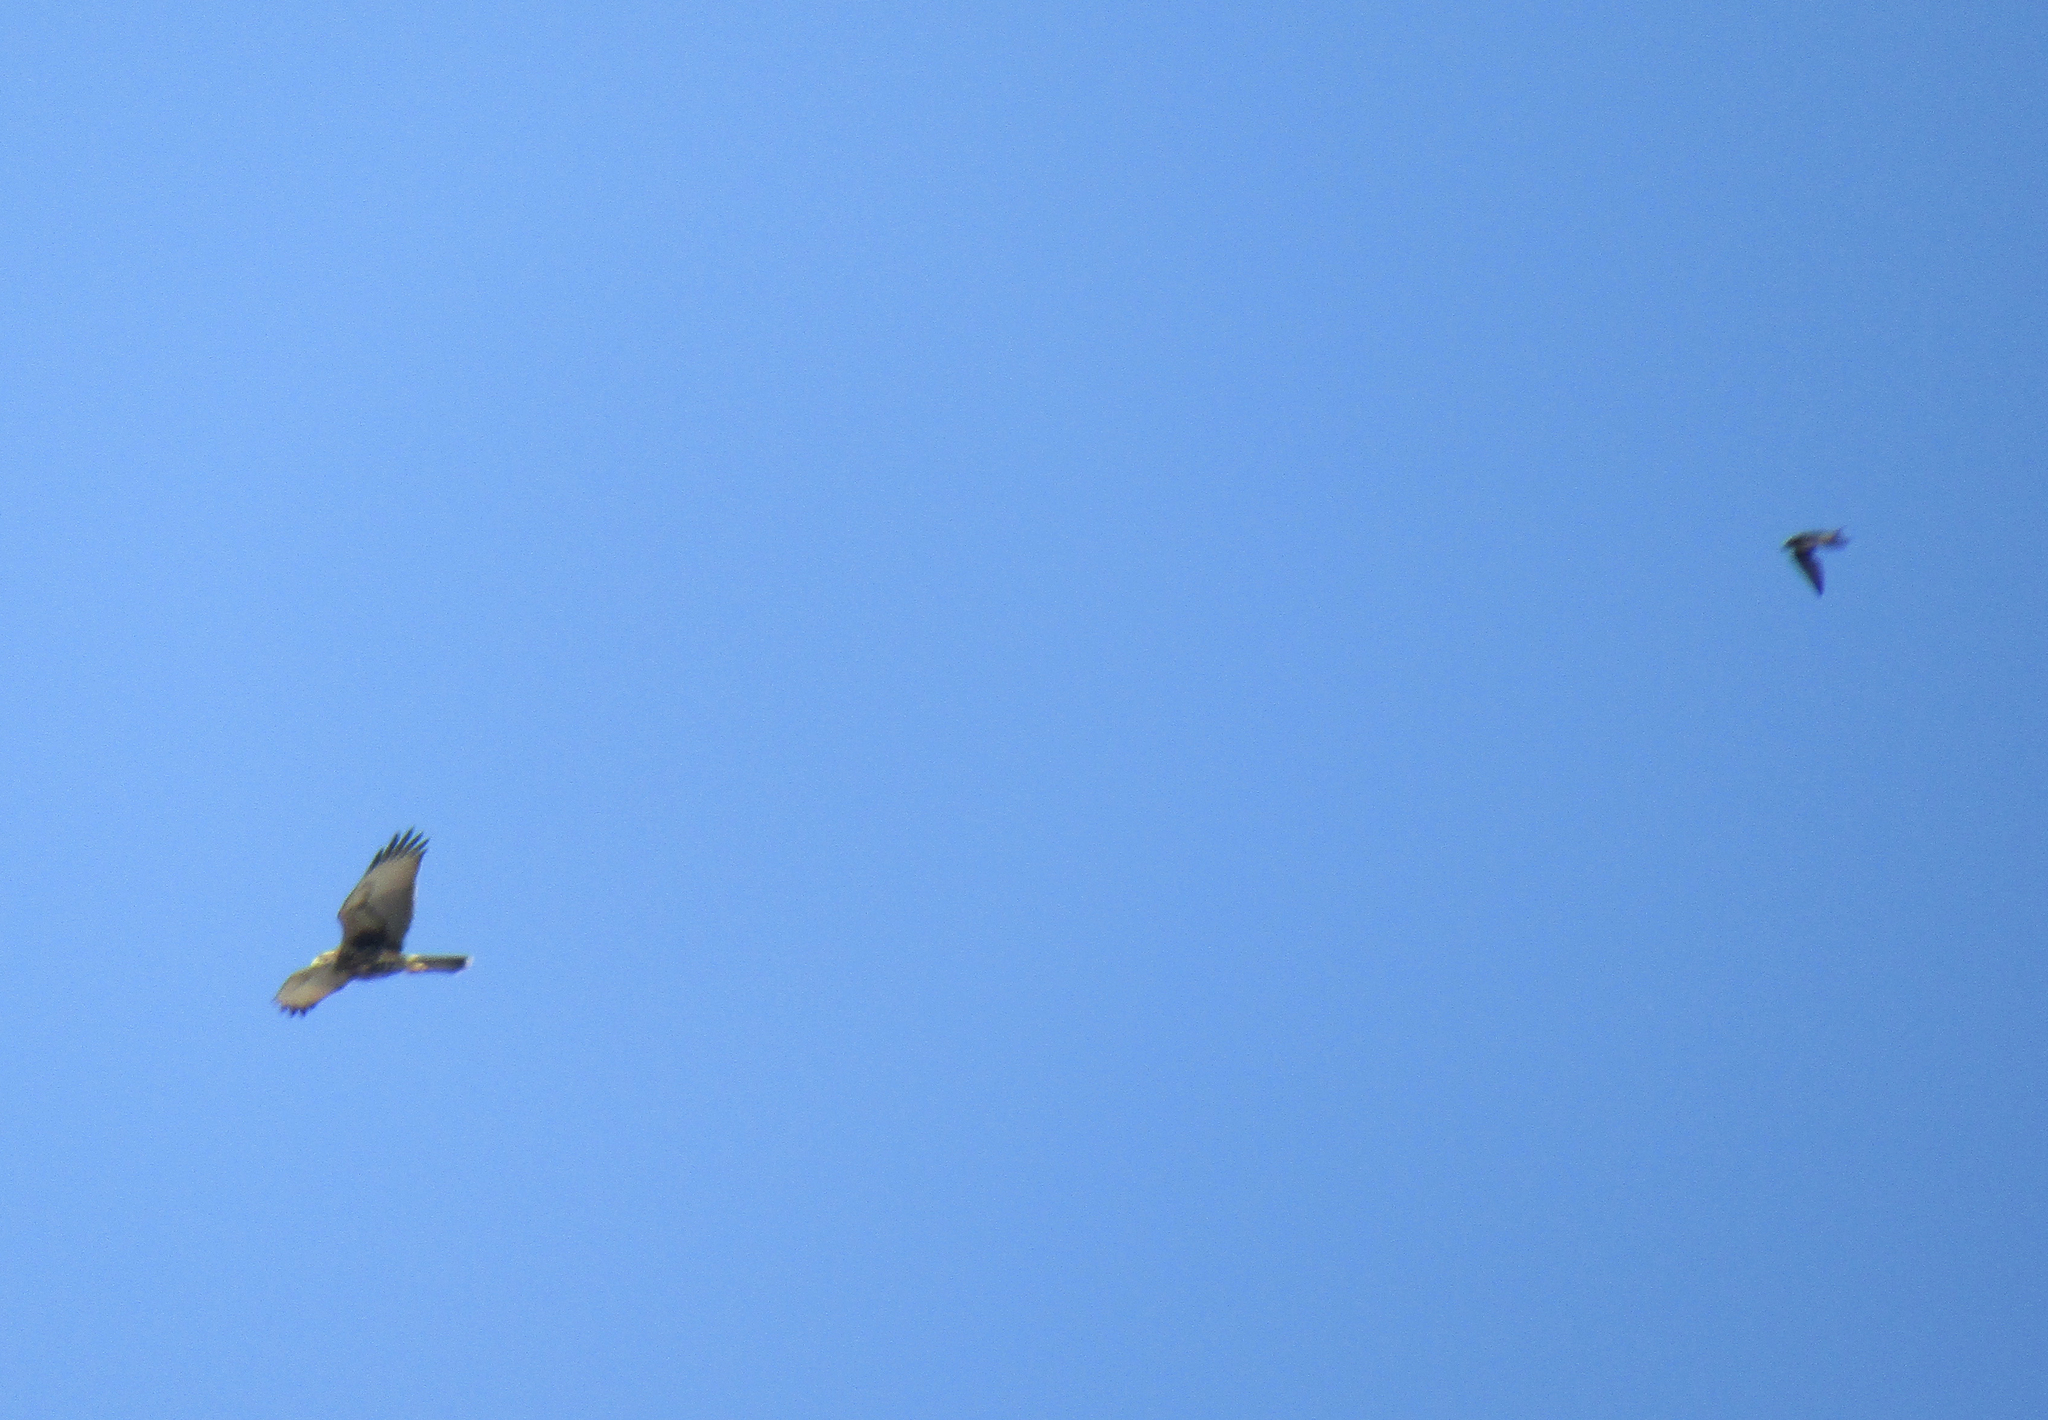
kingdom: Animalia
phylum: Chordata
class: Aves
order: Accipitriformes
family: Accipitridae
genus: Parabuteo
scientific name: Parabuteo unicinctus
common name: Harris's hawk
